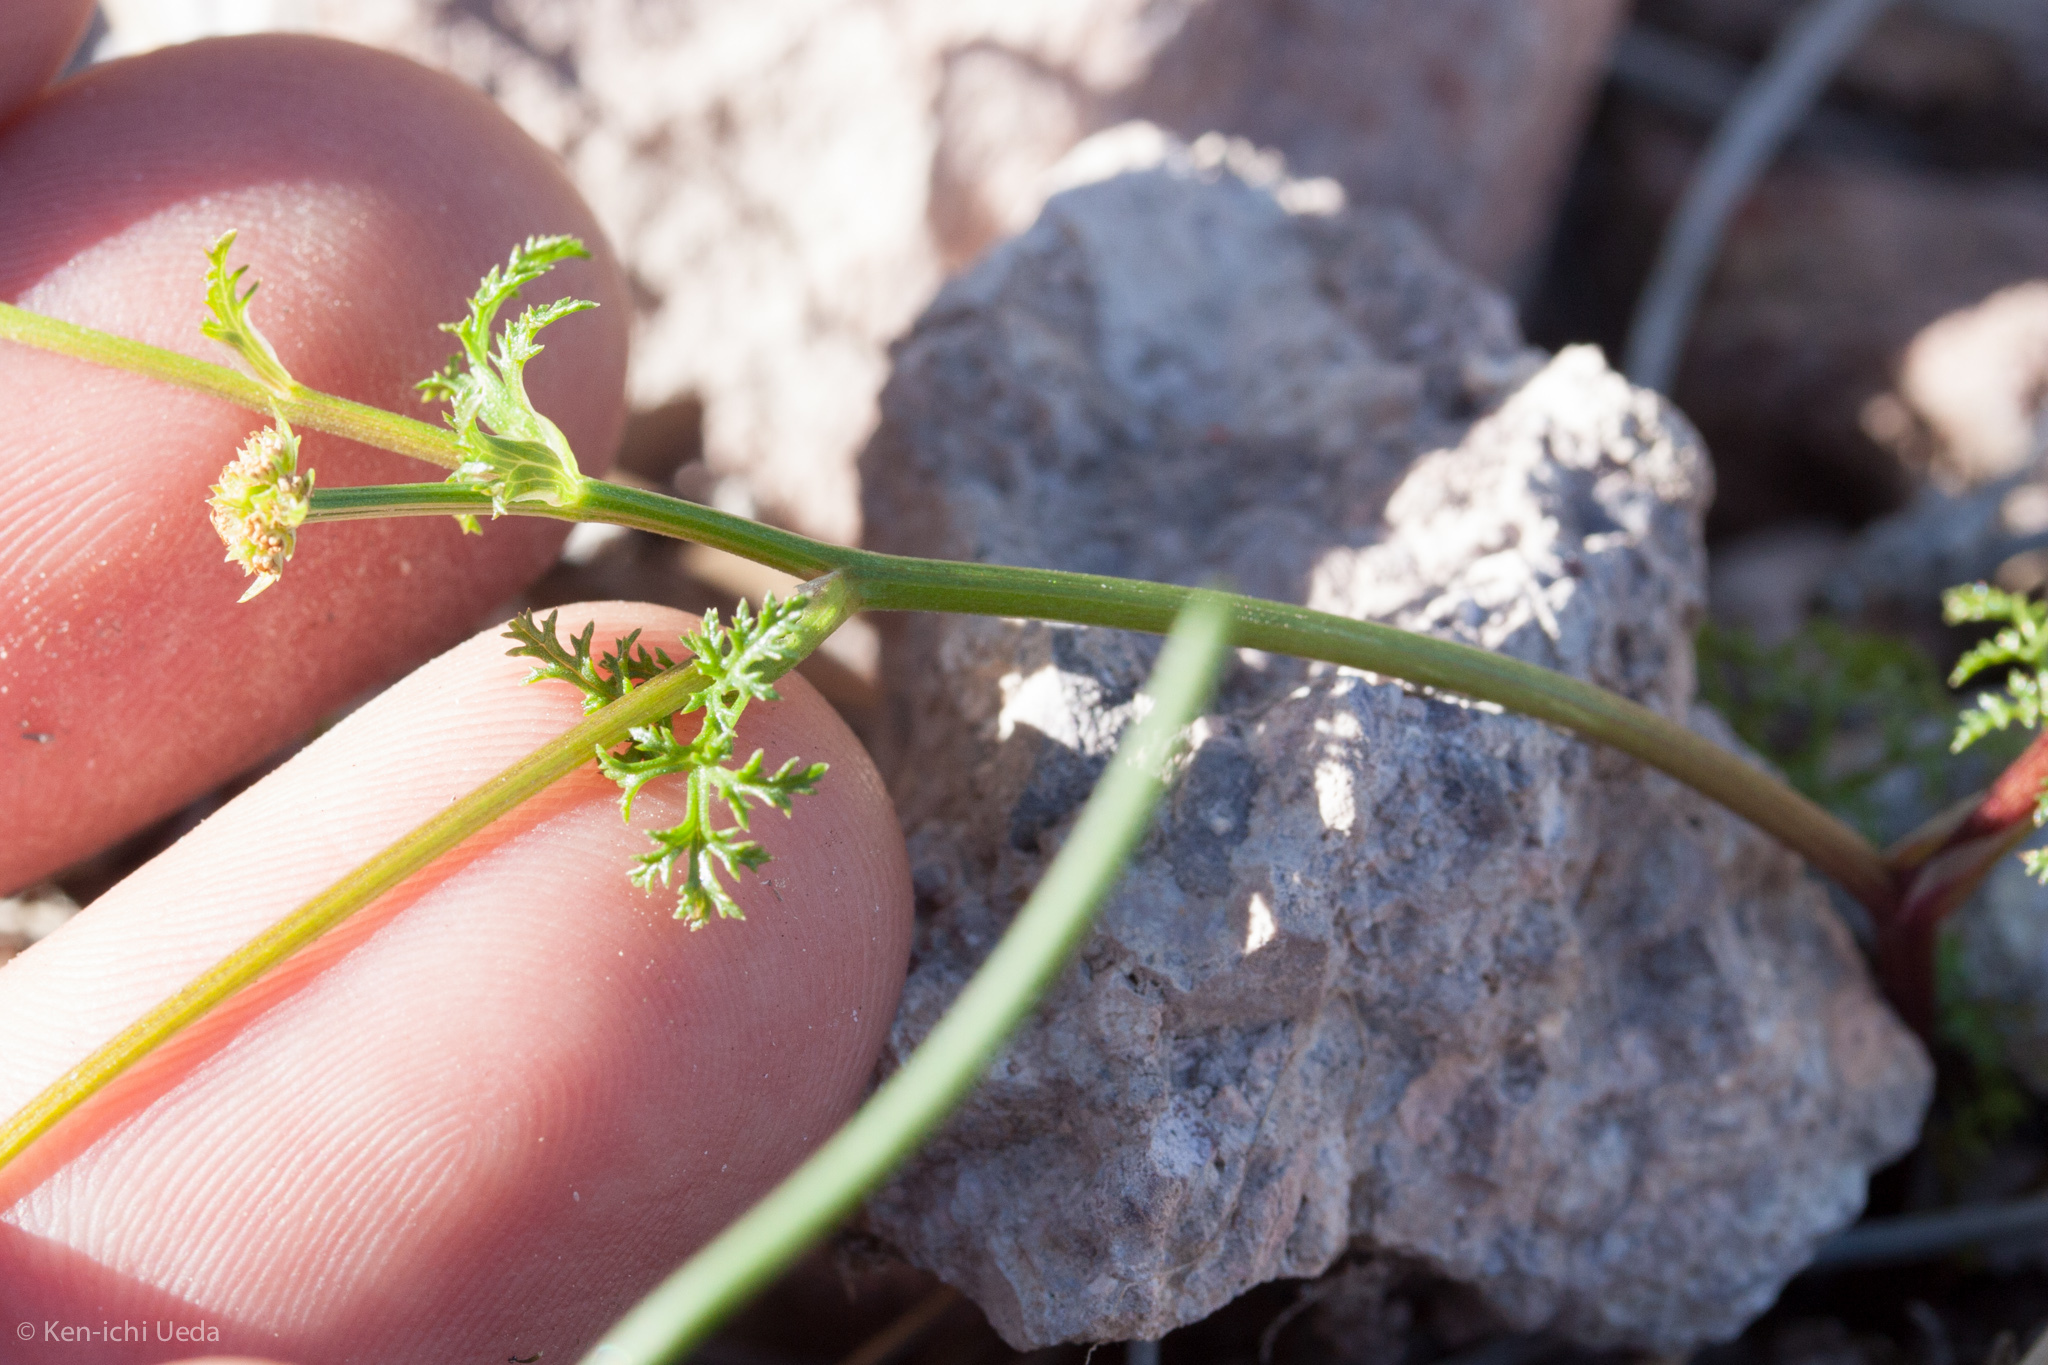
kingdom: Plantae
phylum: Tracheophyta
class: Magnoliopsida
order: Apiales
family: Apiaceae
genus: Sanicula
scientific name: Sanicula tuberosa
